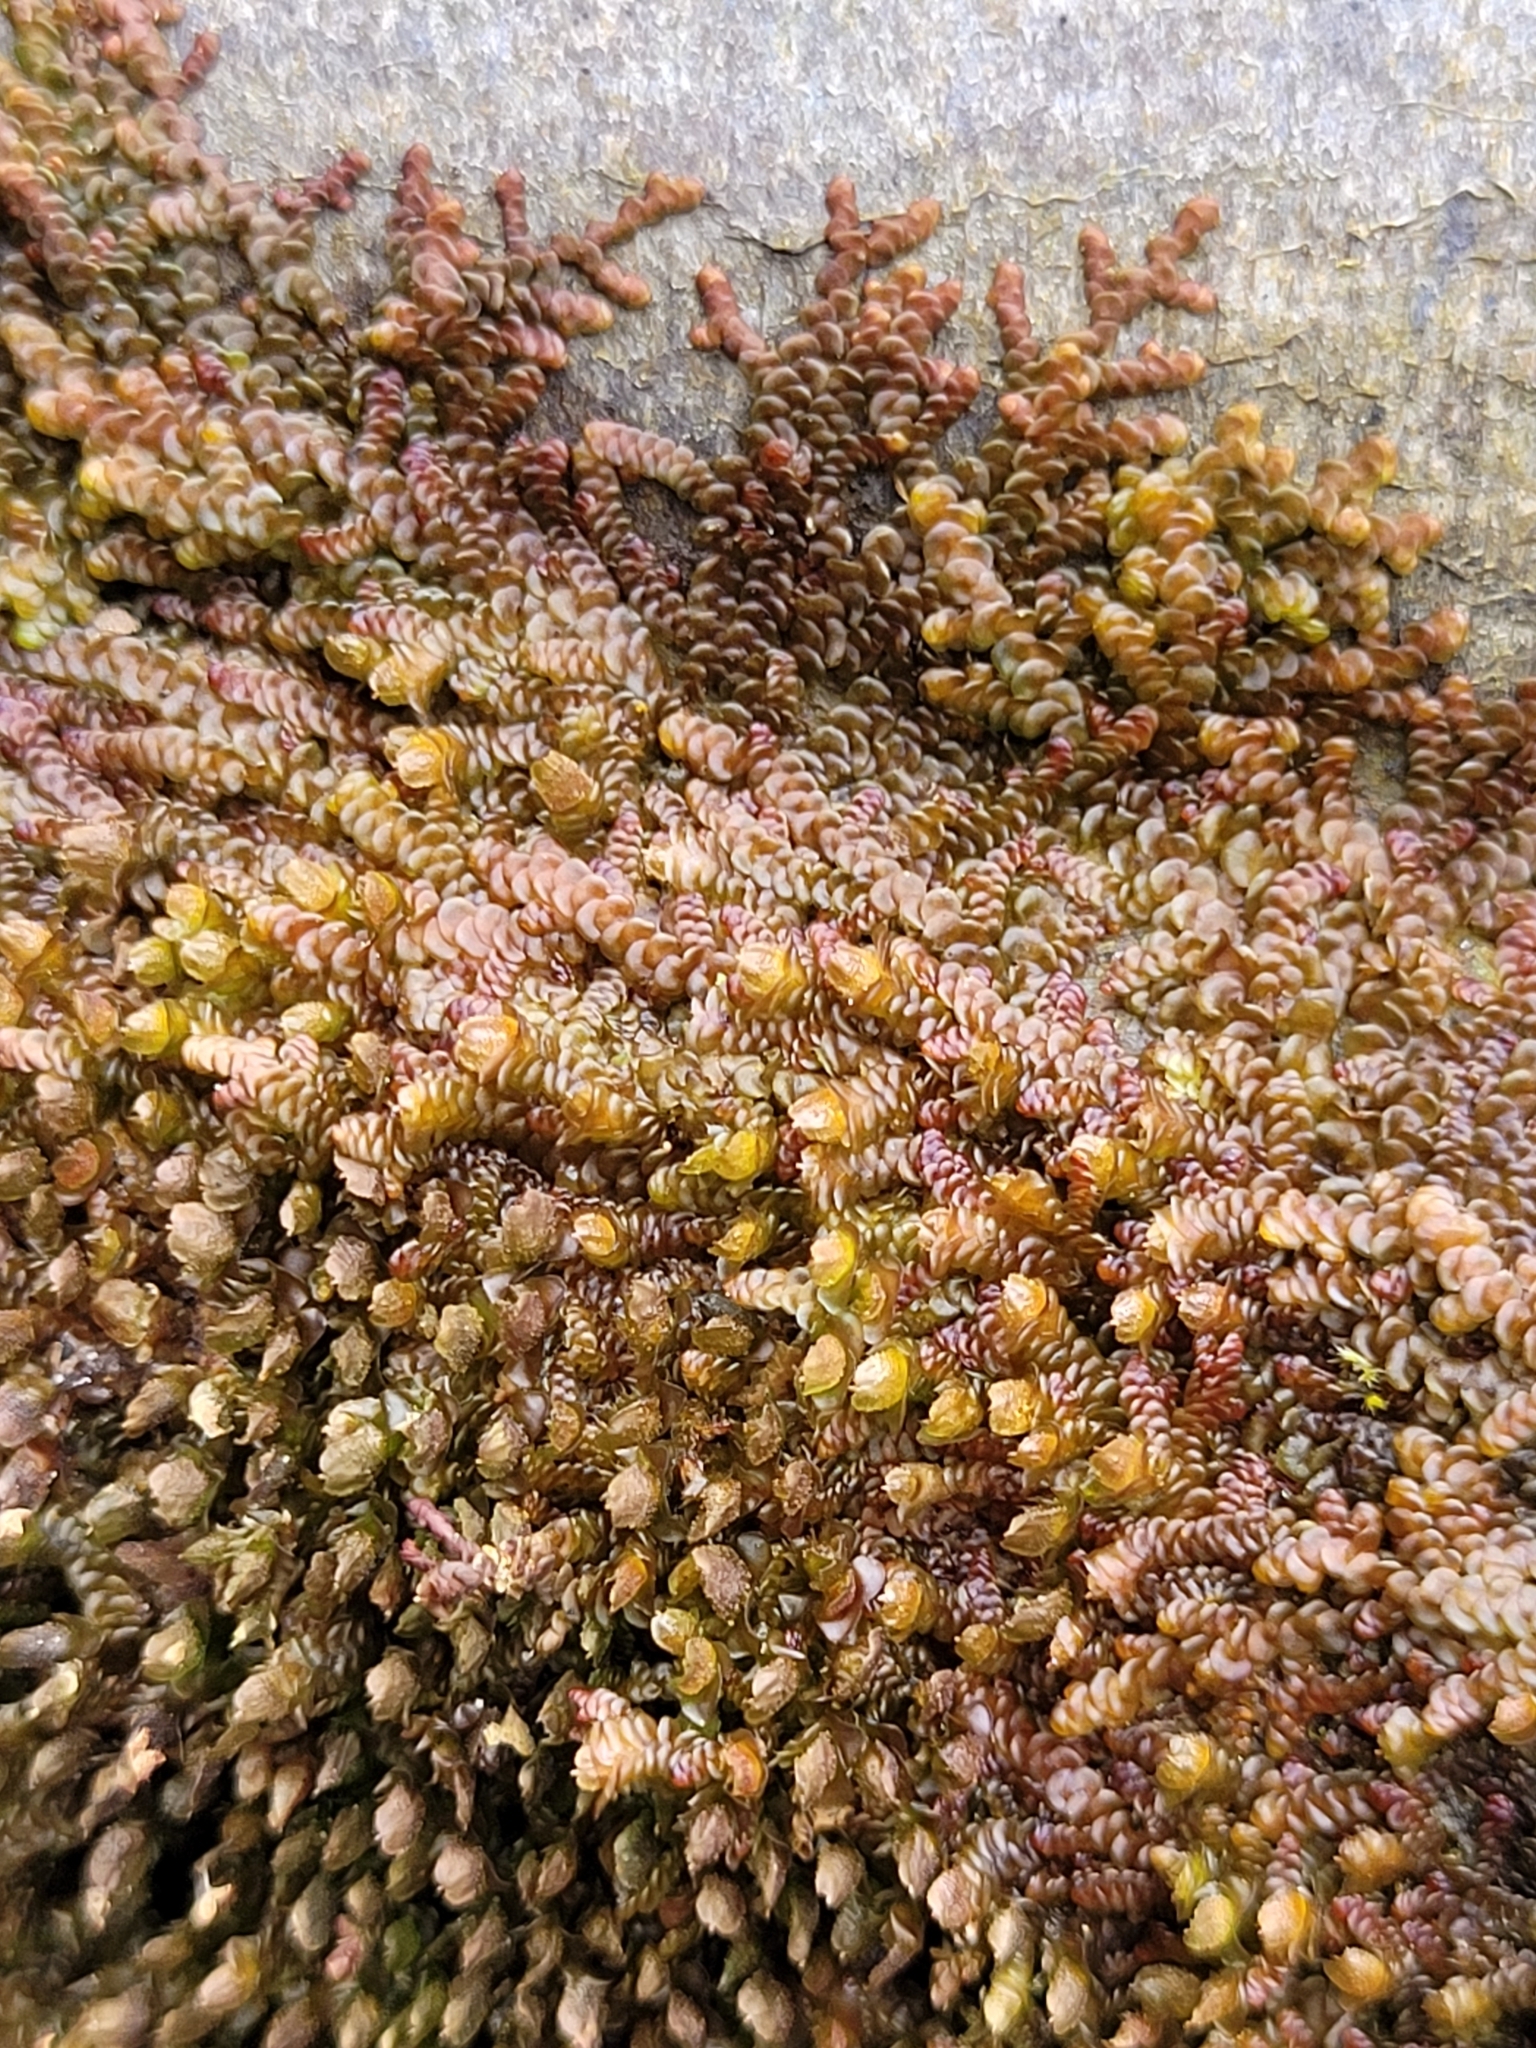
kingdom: Plantae
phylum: Marchantiophyta
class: Jungermanniopsida
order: Porellales
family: Frullaniaceae
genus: Frullania
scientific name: Frullania dilatata
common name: Dilated scalewort
